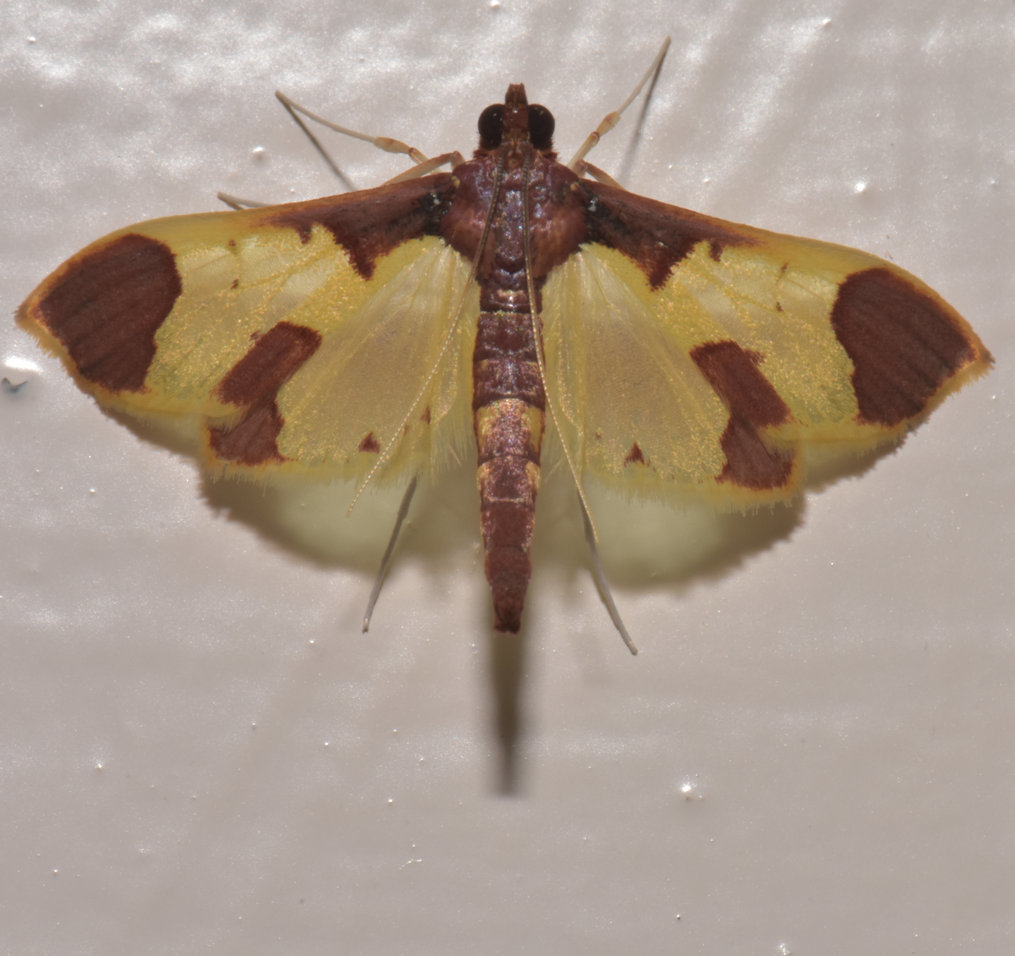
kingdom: Animalia
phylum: Arthropoda
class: Insecta
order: Lepidoptera
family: Crambidae
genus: Syllepis
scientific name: Syllepis marialis
